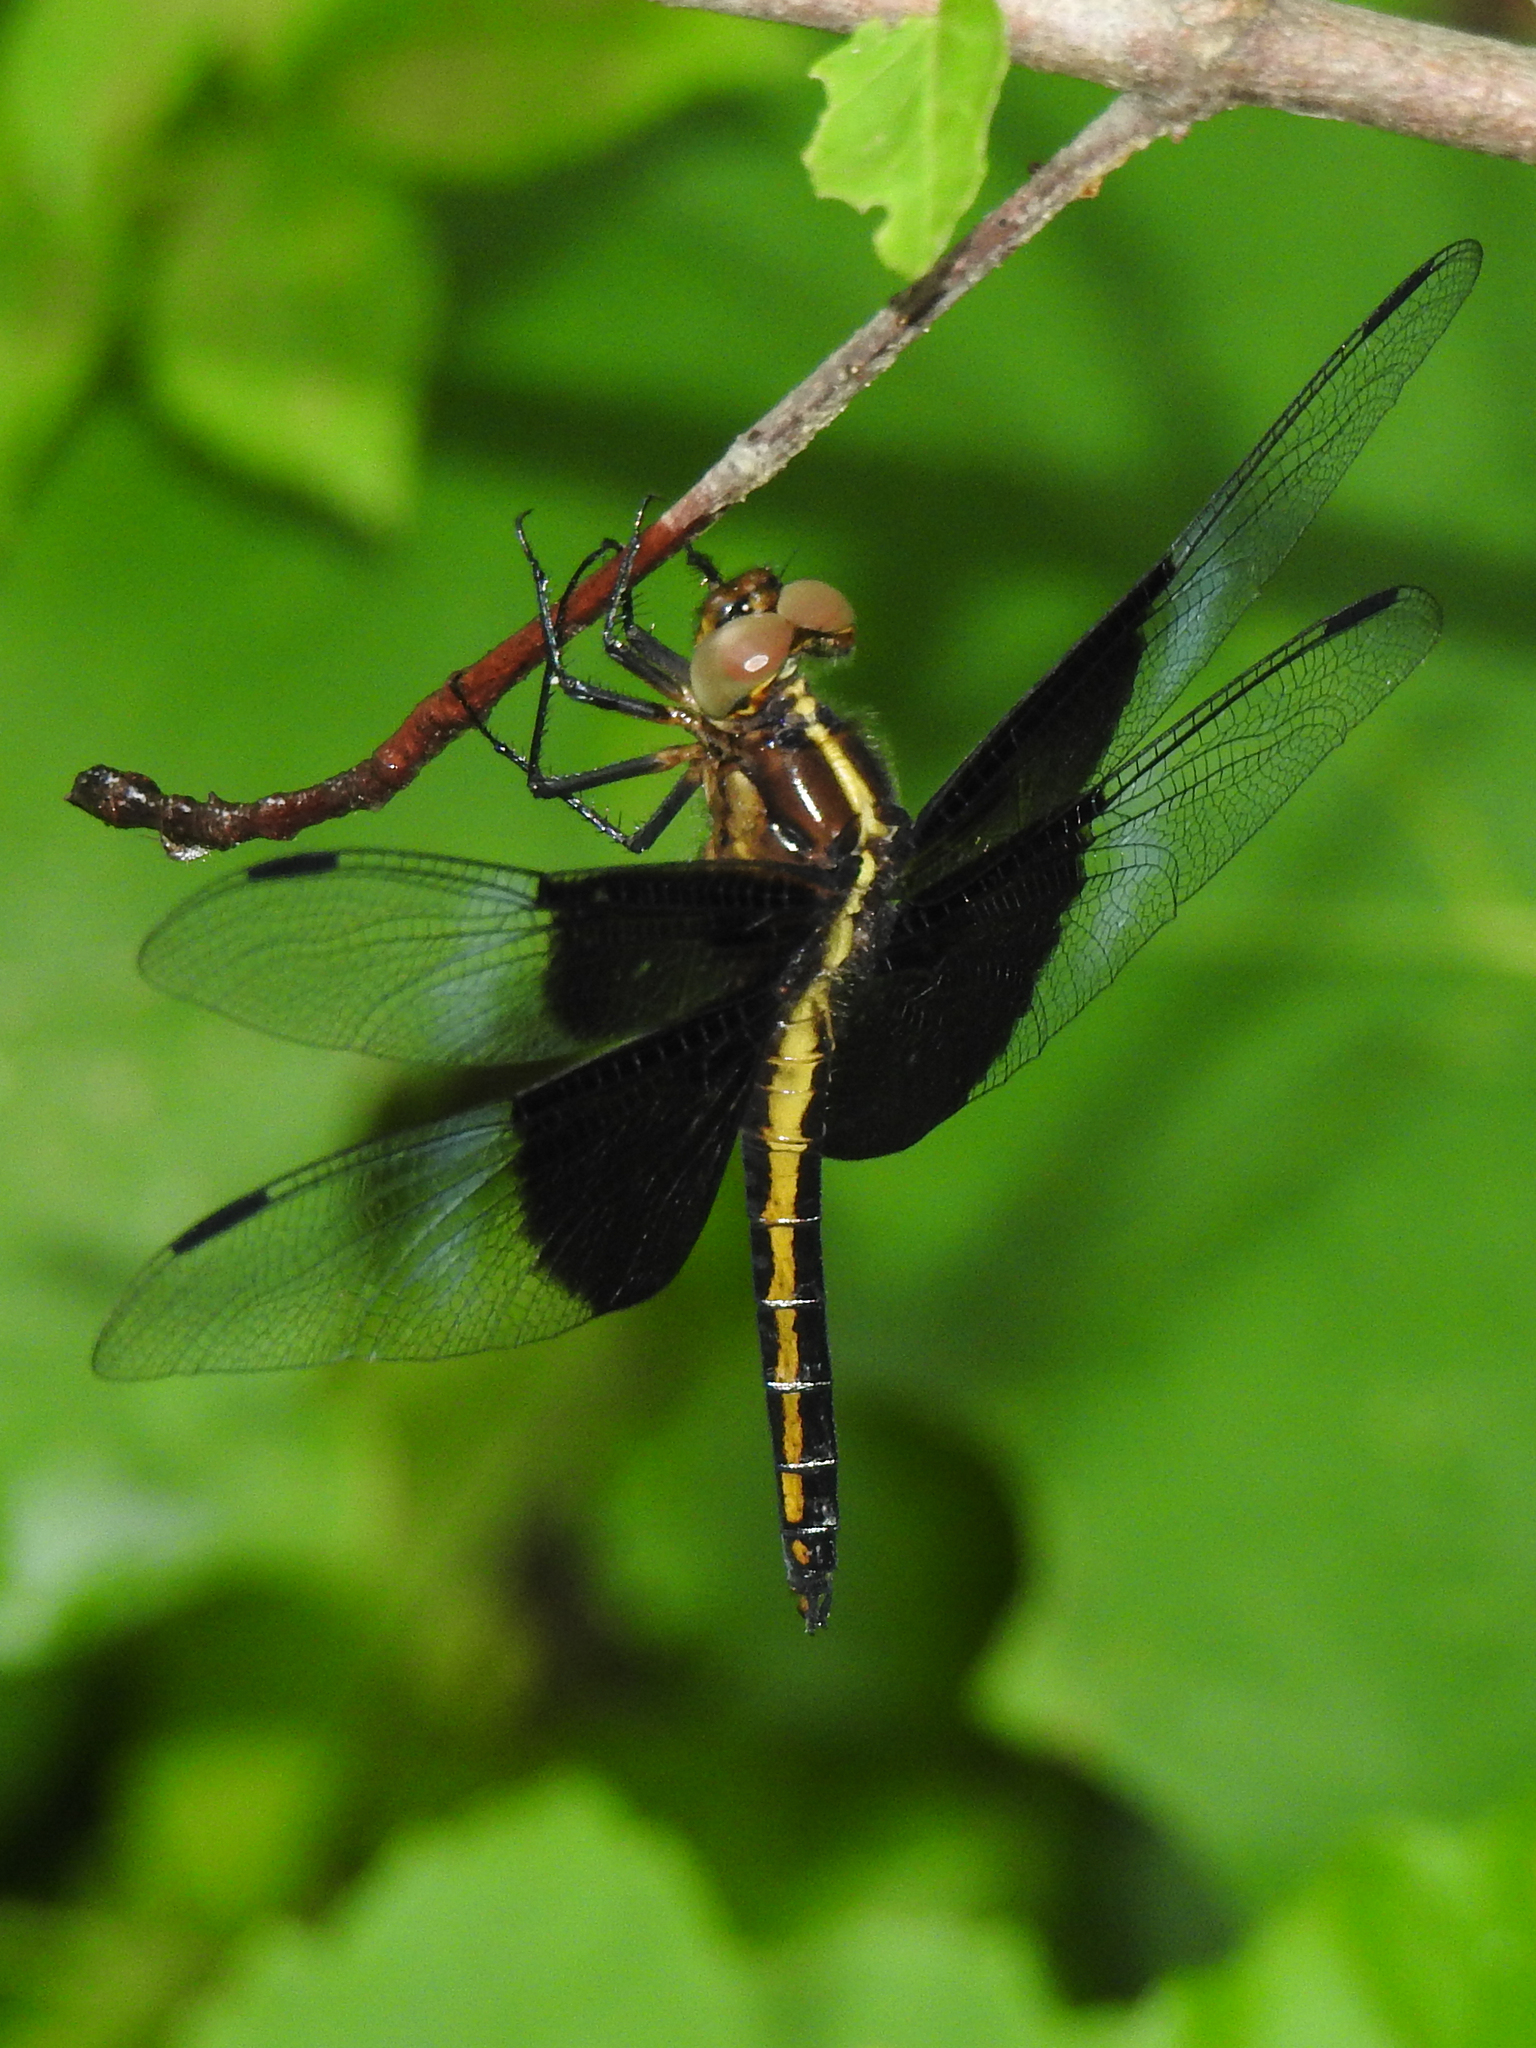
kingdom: Animalia
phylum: Arthropoda
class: Insecta
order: Odonata
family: Libellulidae
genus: Libellula
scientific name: Libellula luctuosa
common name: Widow skimmer
